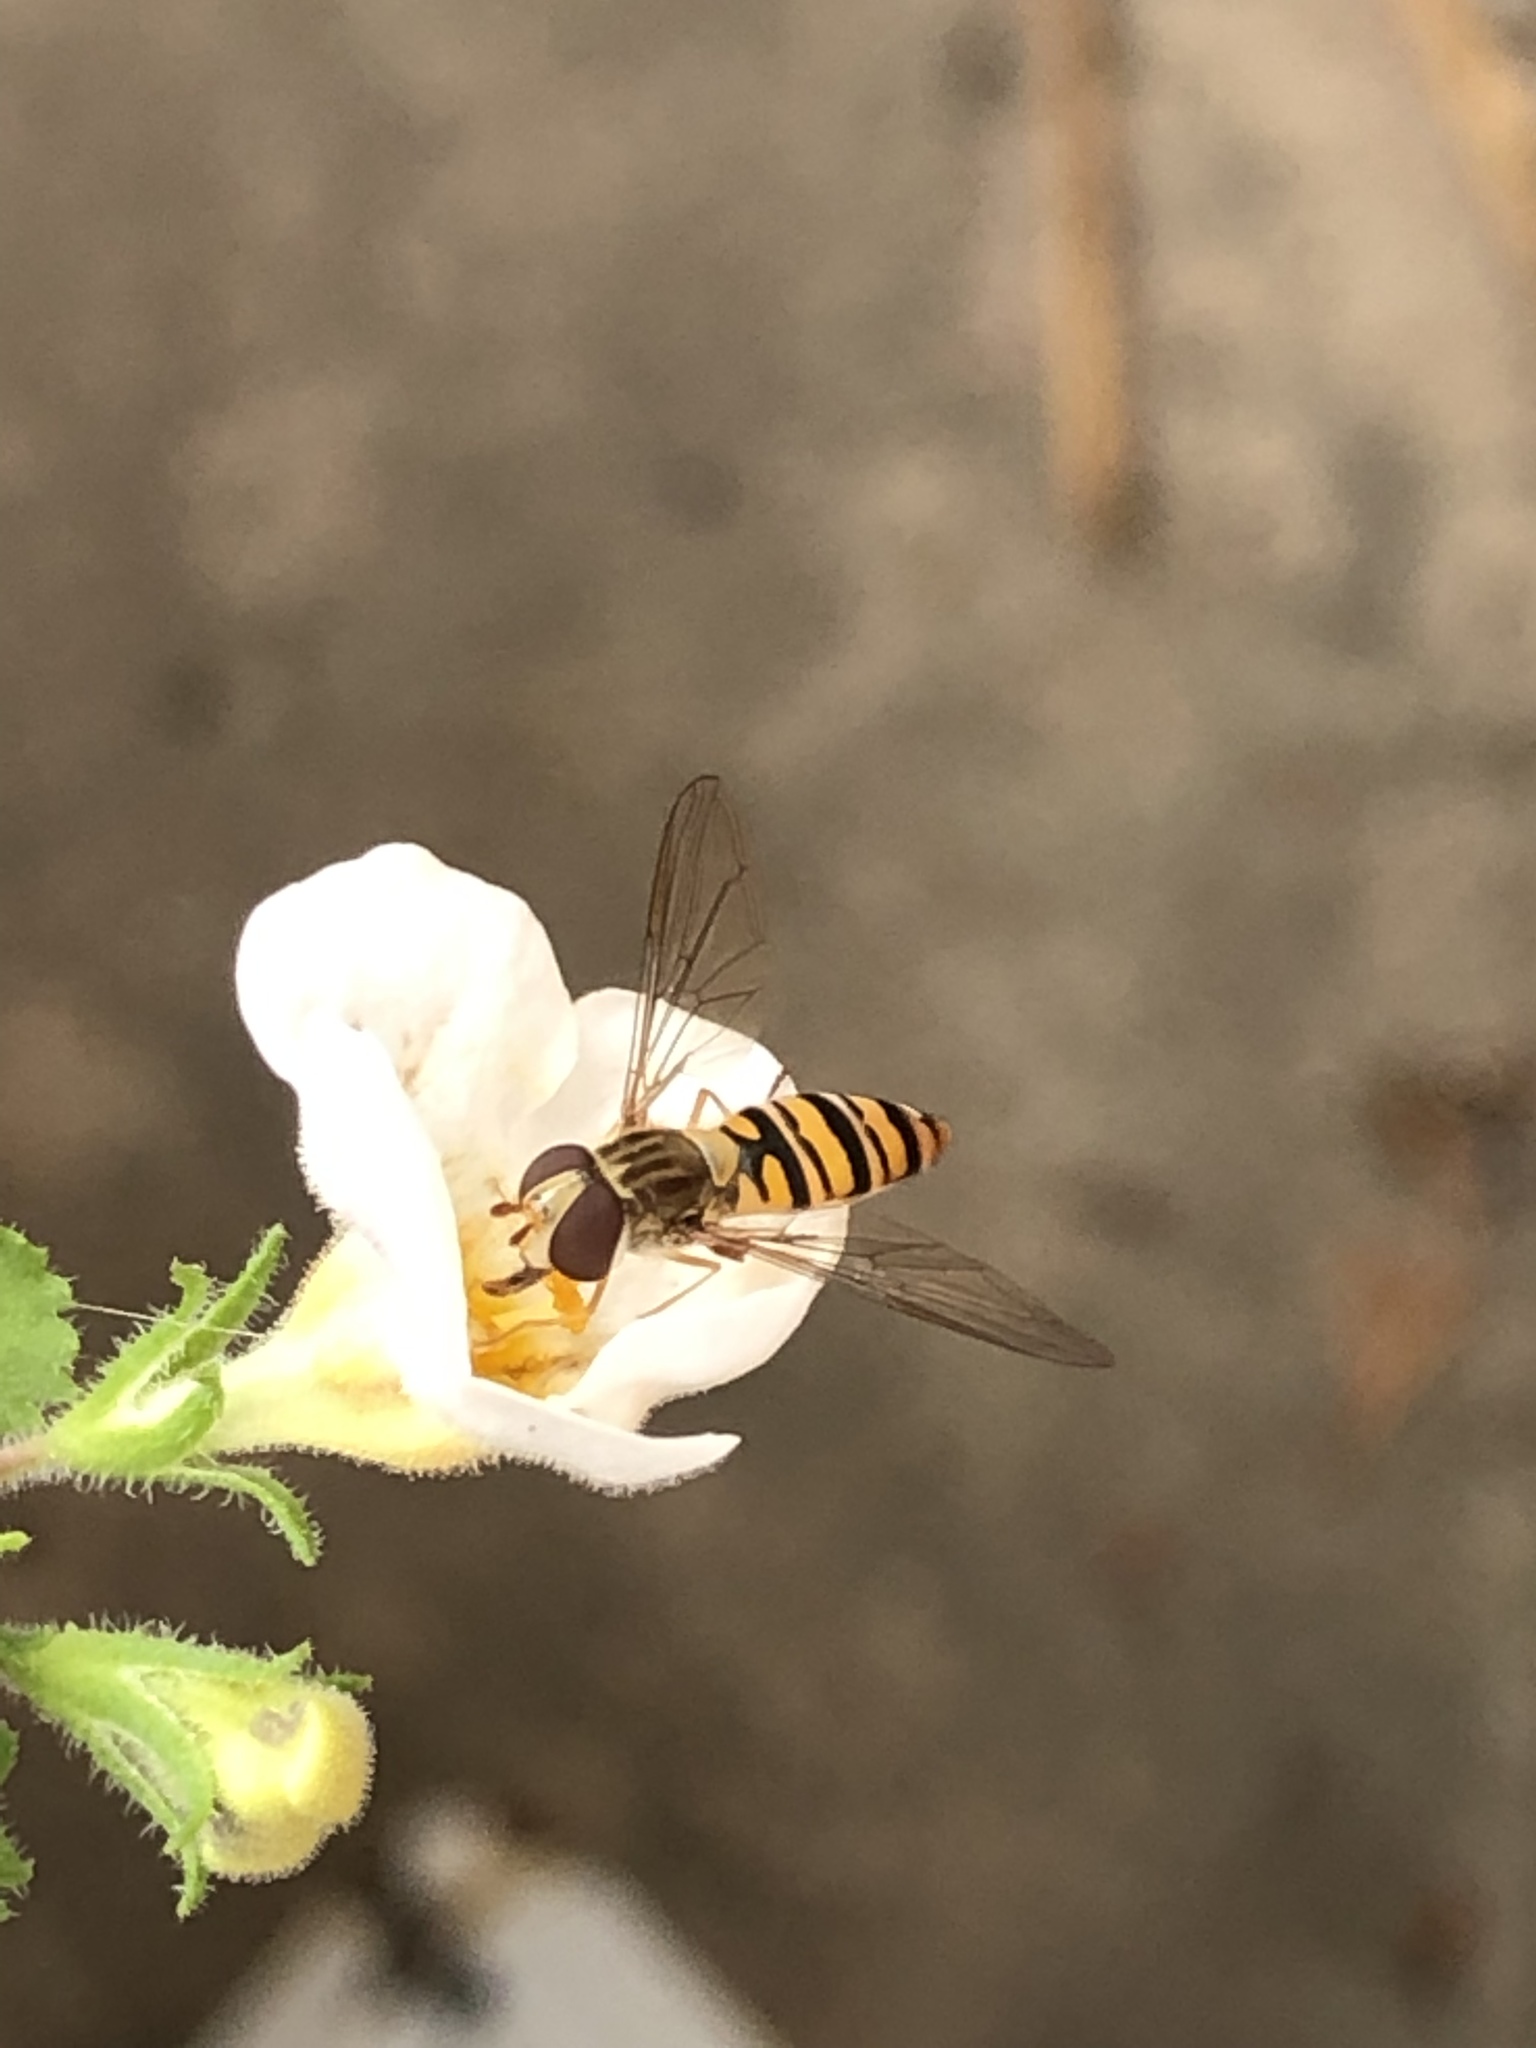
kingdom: Animalia
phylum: Arthropoda
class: Insecta
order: Diptera
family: Syrphidae
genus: Episyrphus
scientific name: Episyrphus balteatus
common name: Marmalade hoverfly
